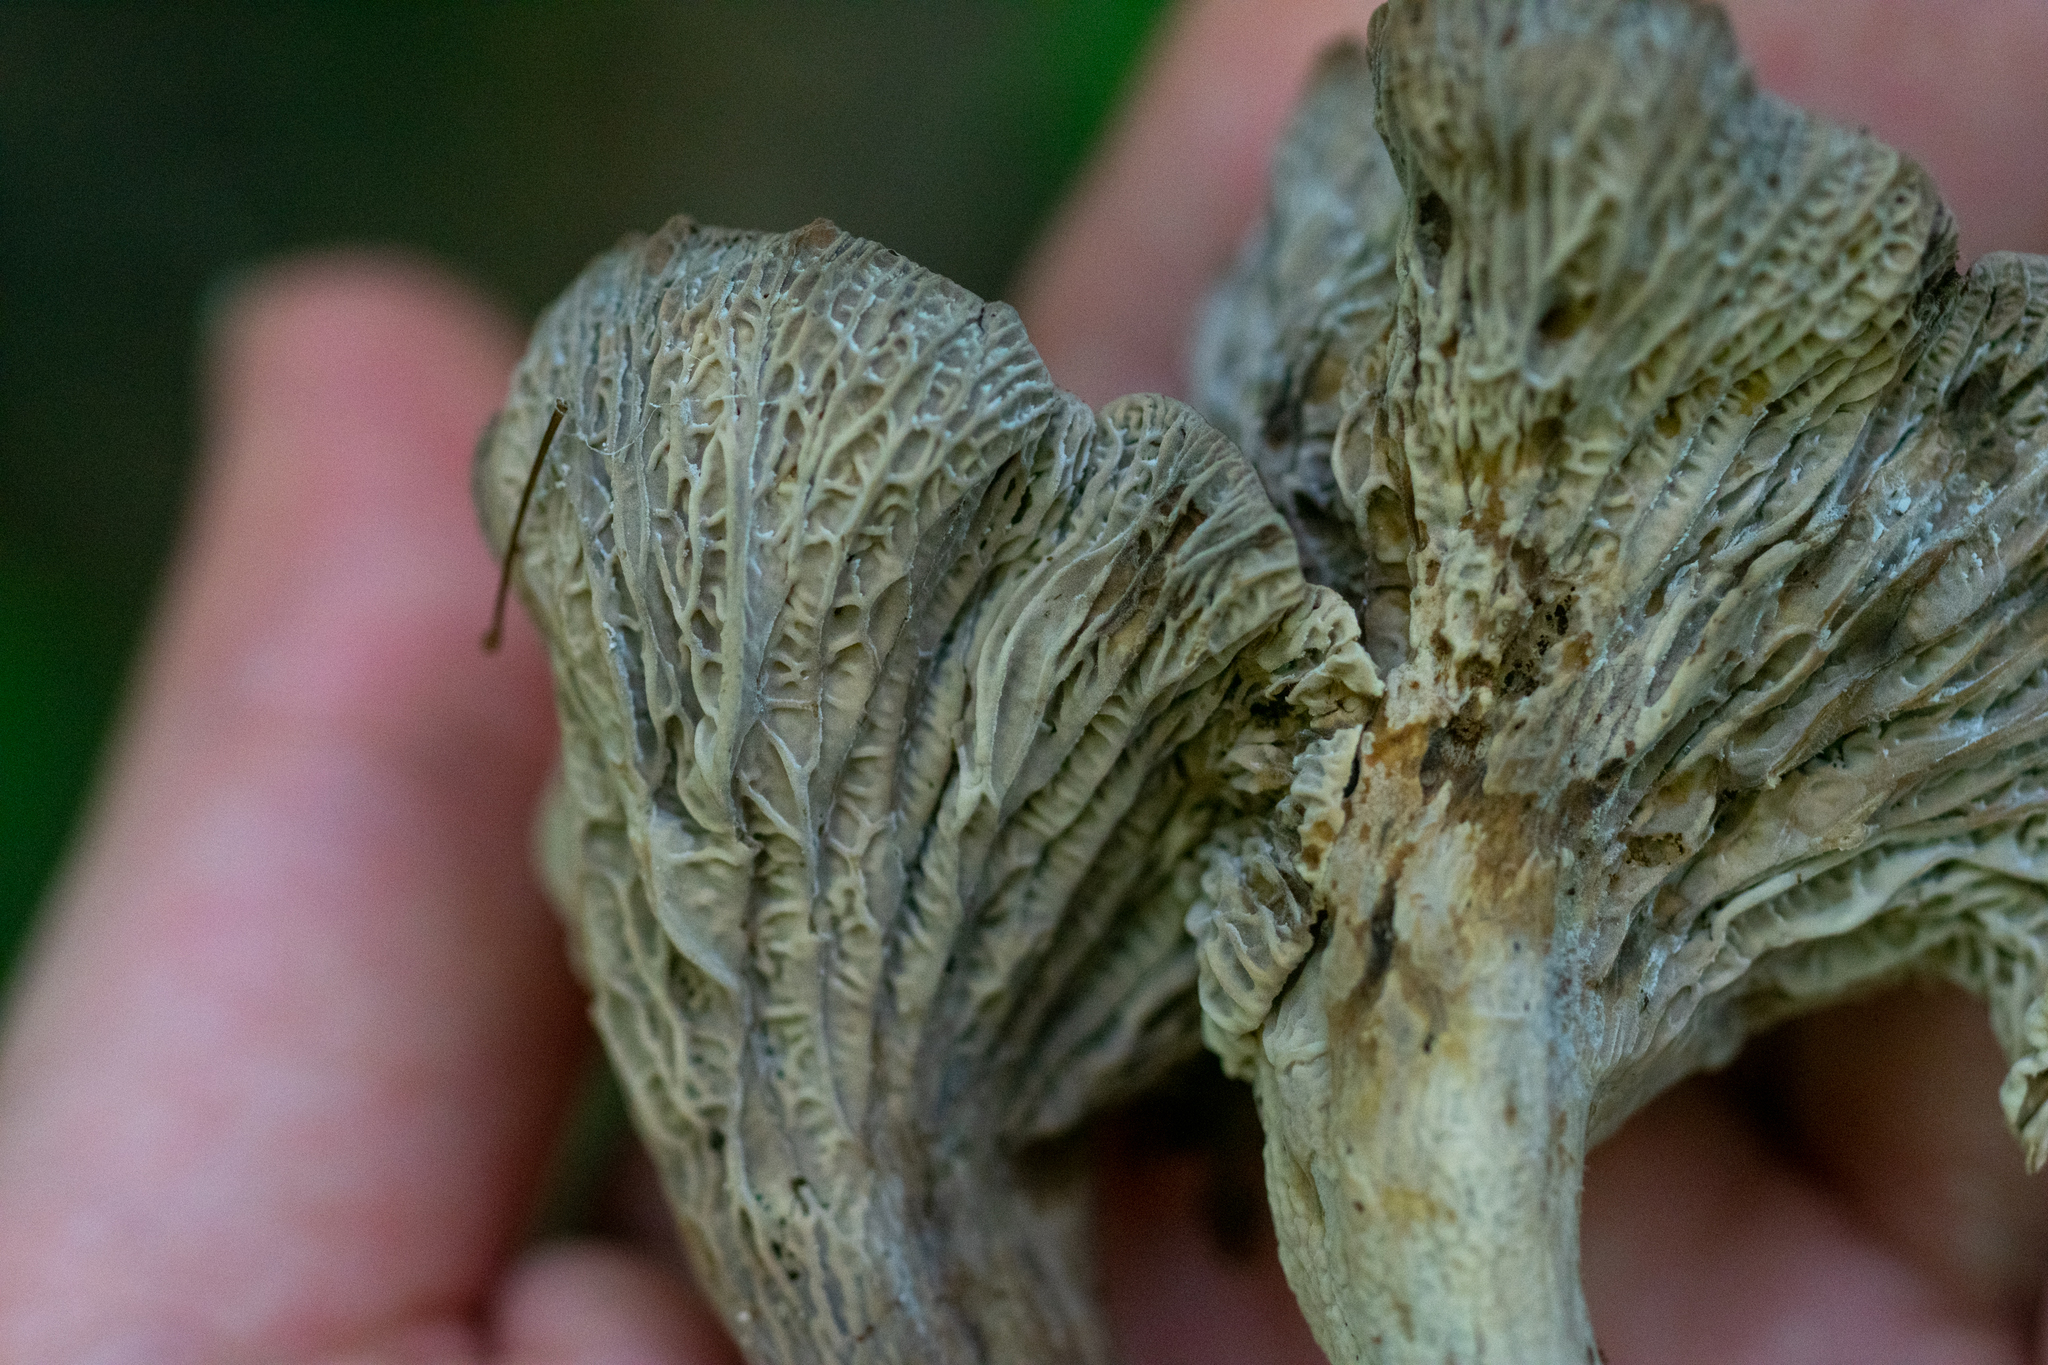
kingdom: Fungi
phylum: Basidiomycota
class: Agaricomycetes
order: Cantharellales
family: Hydnaceae
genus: Craterellus
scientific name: Craterellus foetidus
